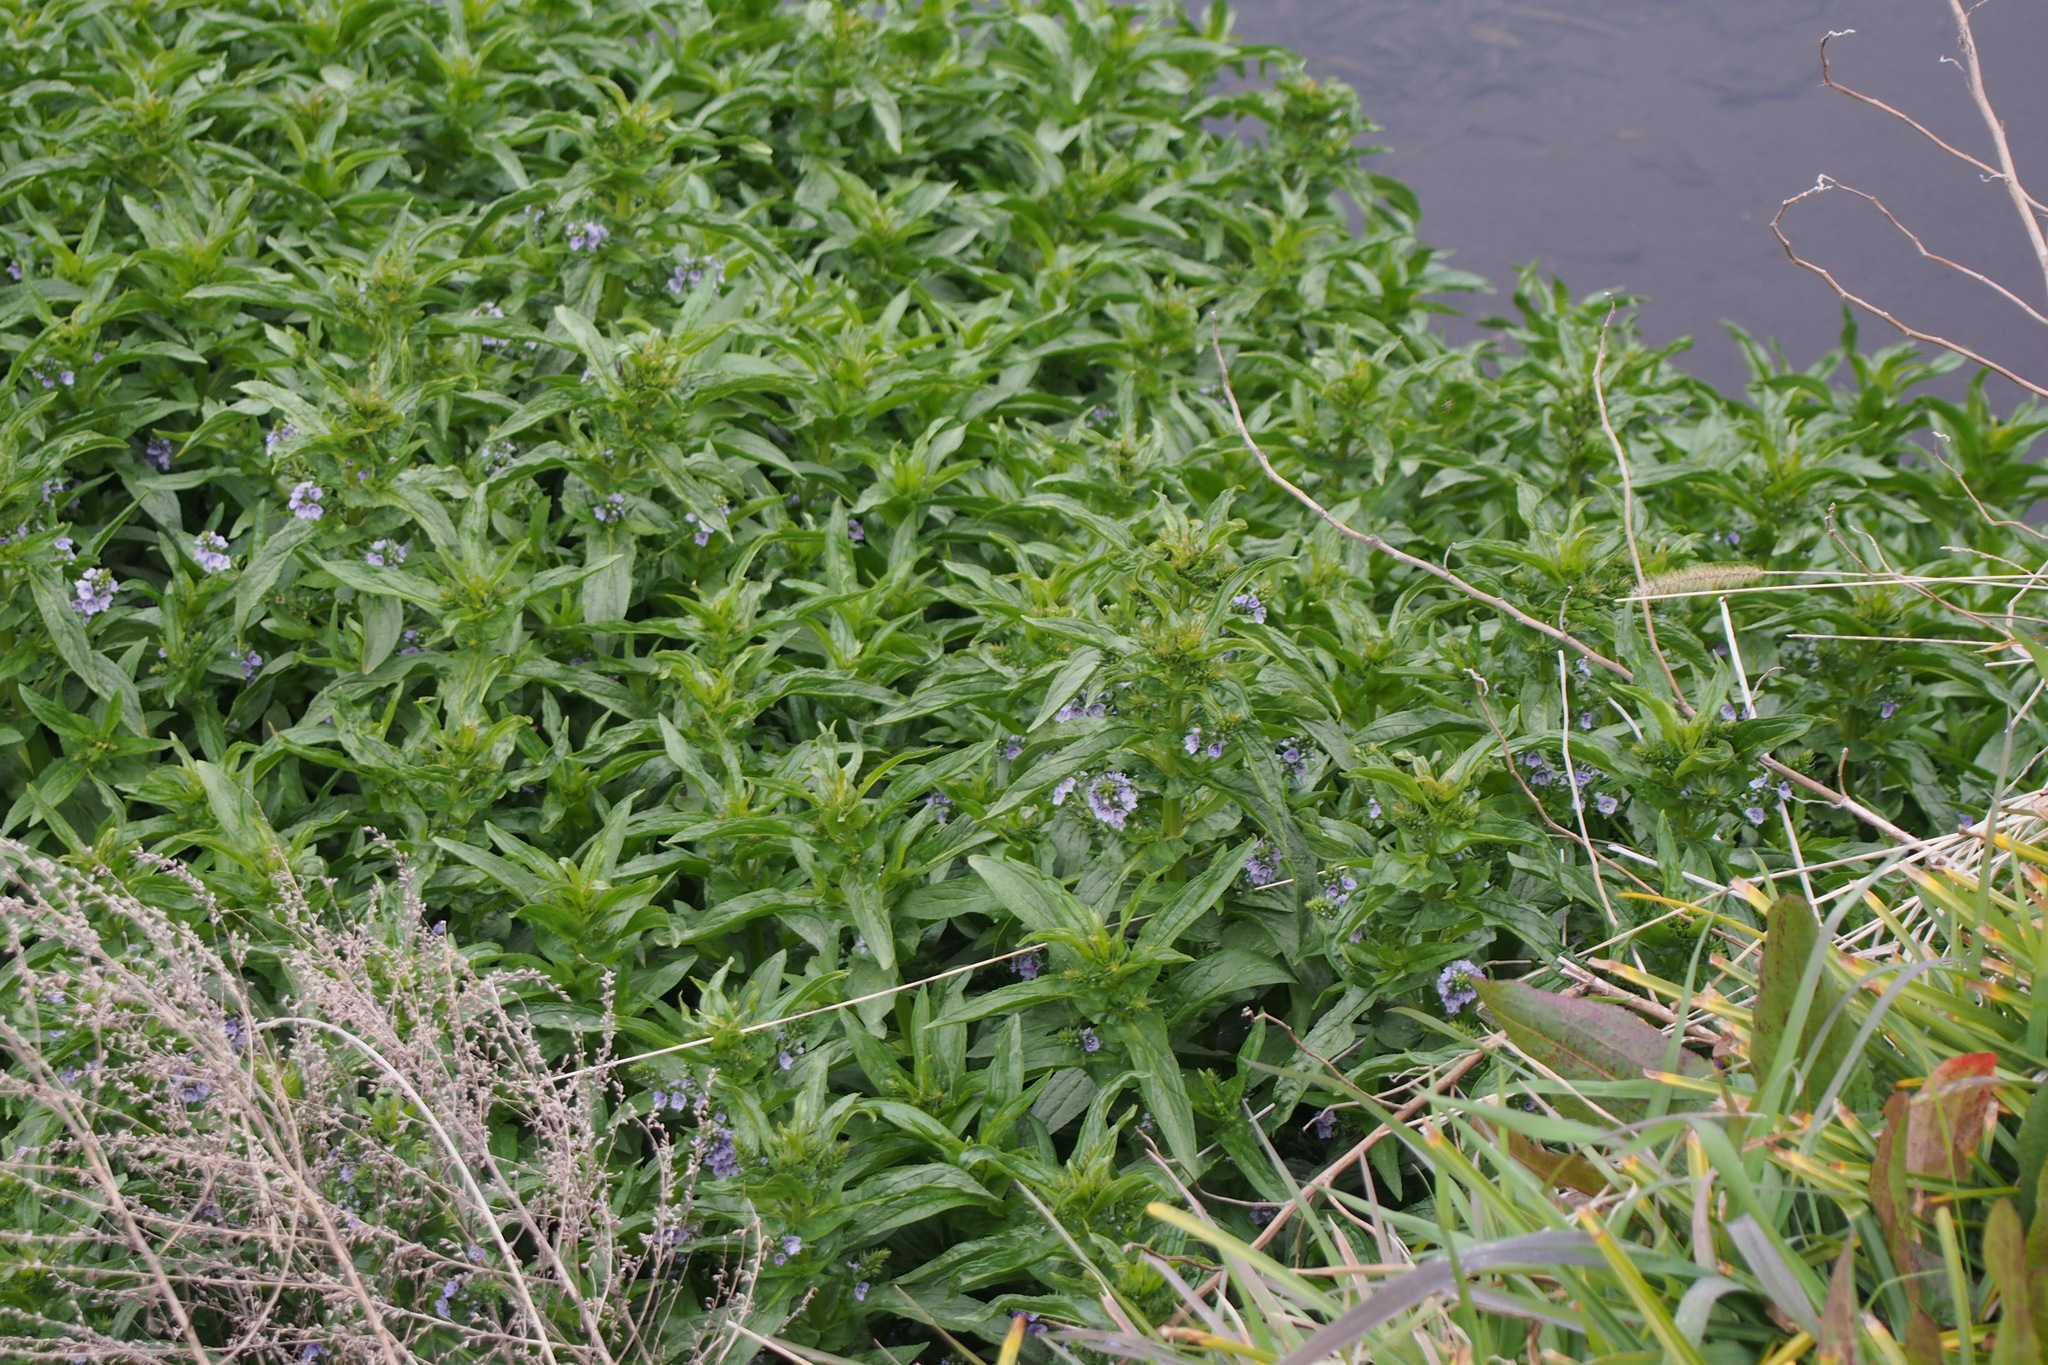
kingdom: Plantae
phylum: Tracheophyta
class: Magnoliopsida
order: Lamiales
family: Plantaginaceae
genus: Veronica
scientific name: Veronica anagallis-aquatica
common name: Water speedwell
